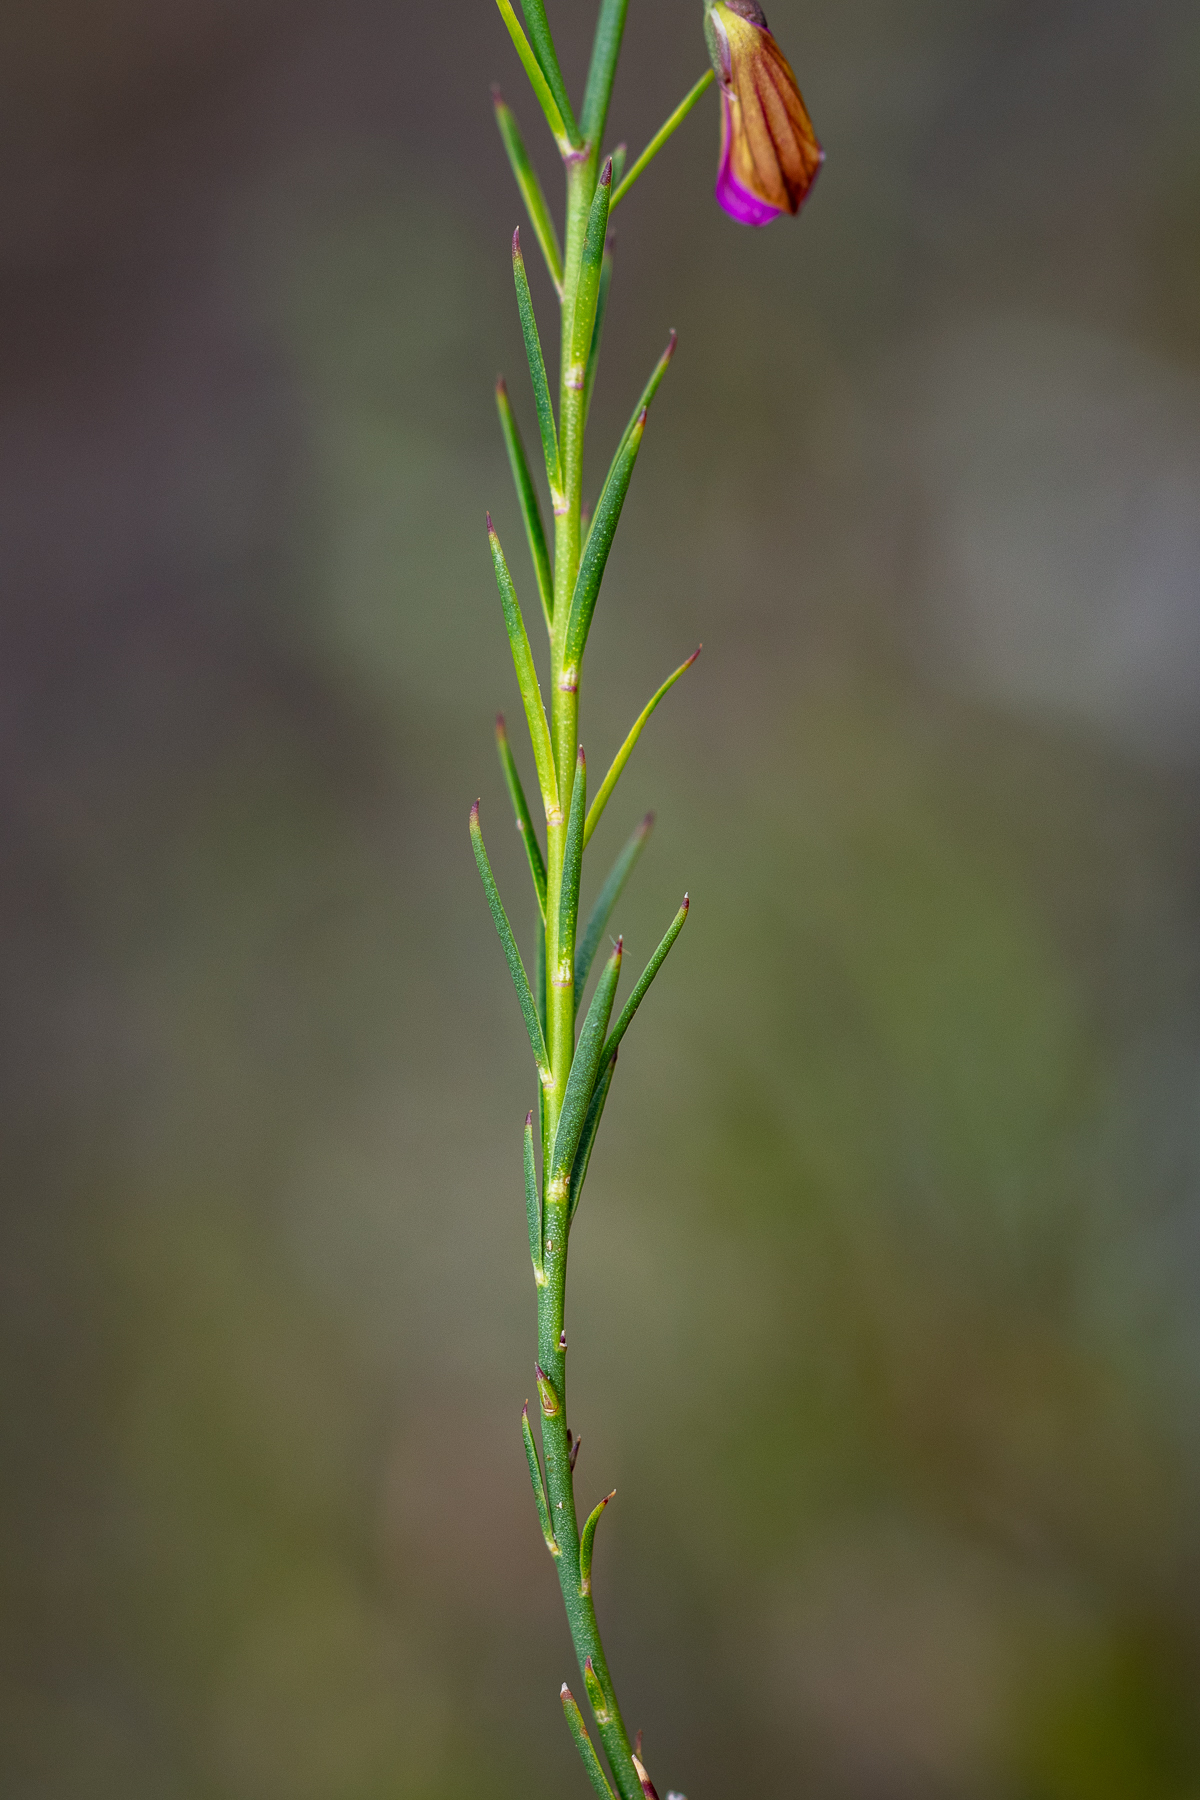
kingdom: Plantae
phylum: Tracheophyta
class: Magnoliopsida
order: Fabales
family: Polygalaceae
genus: Polygala
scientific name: Polygala garcini
